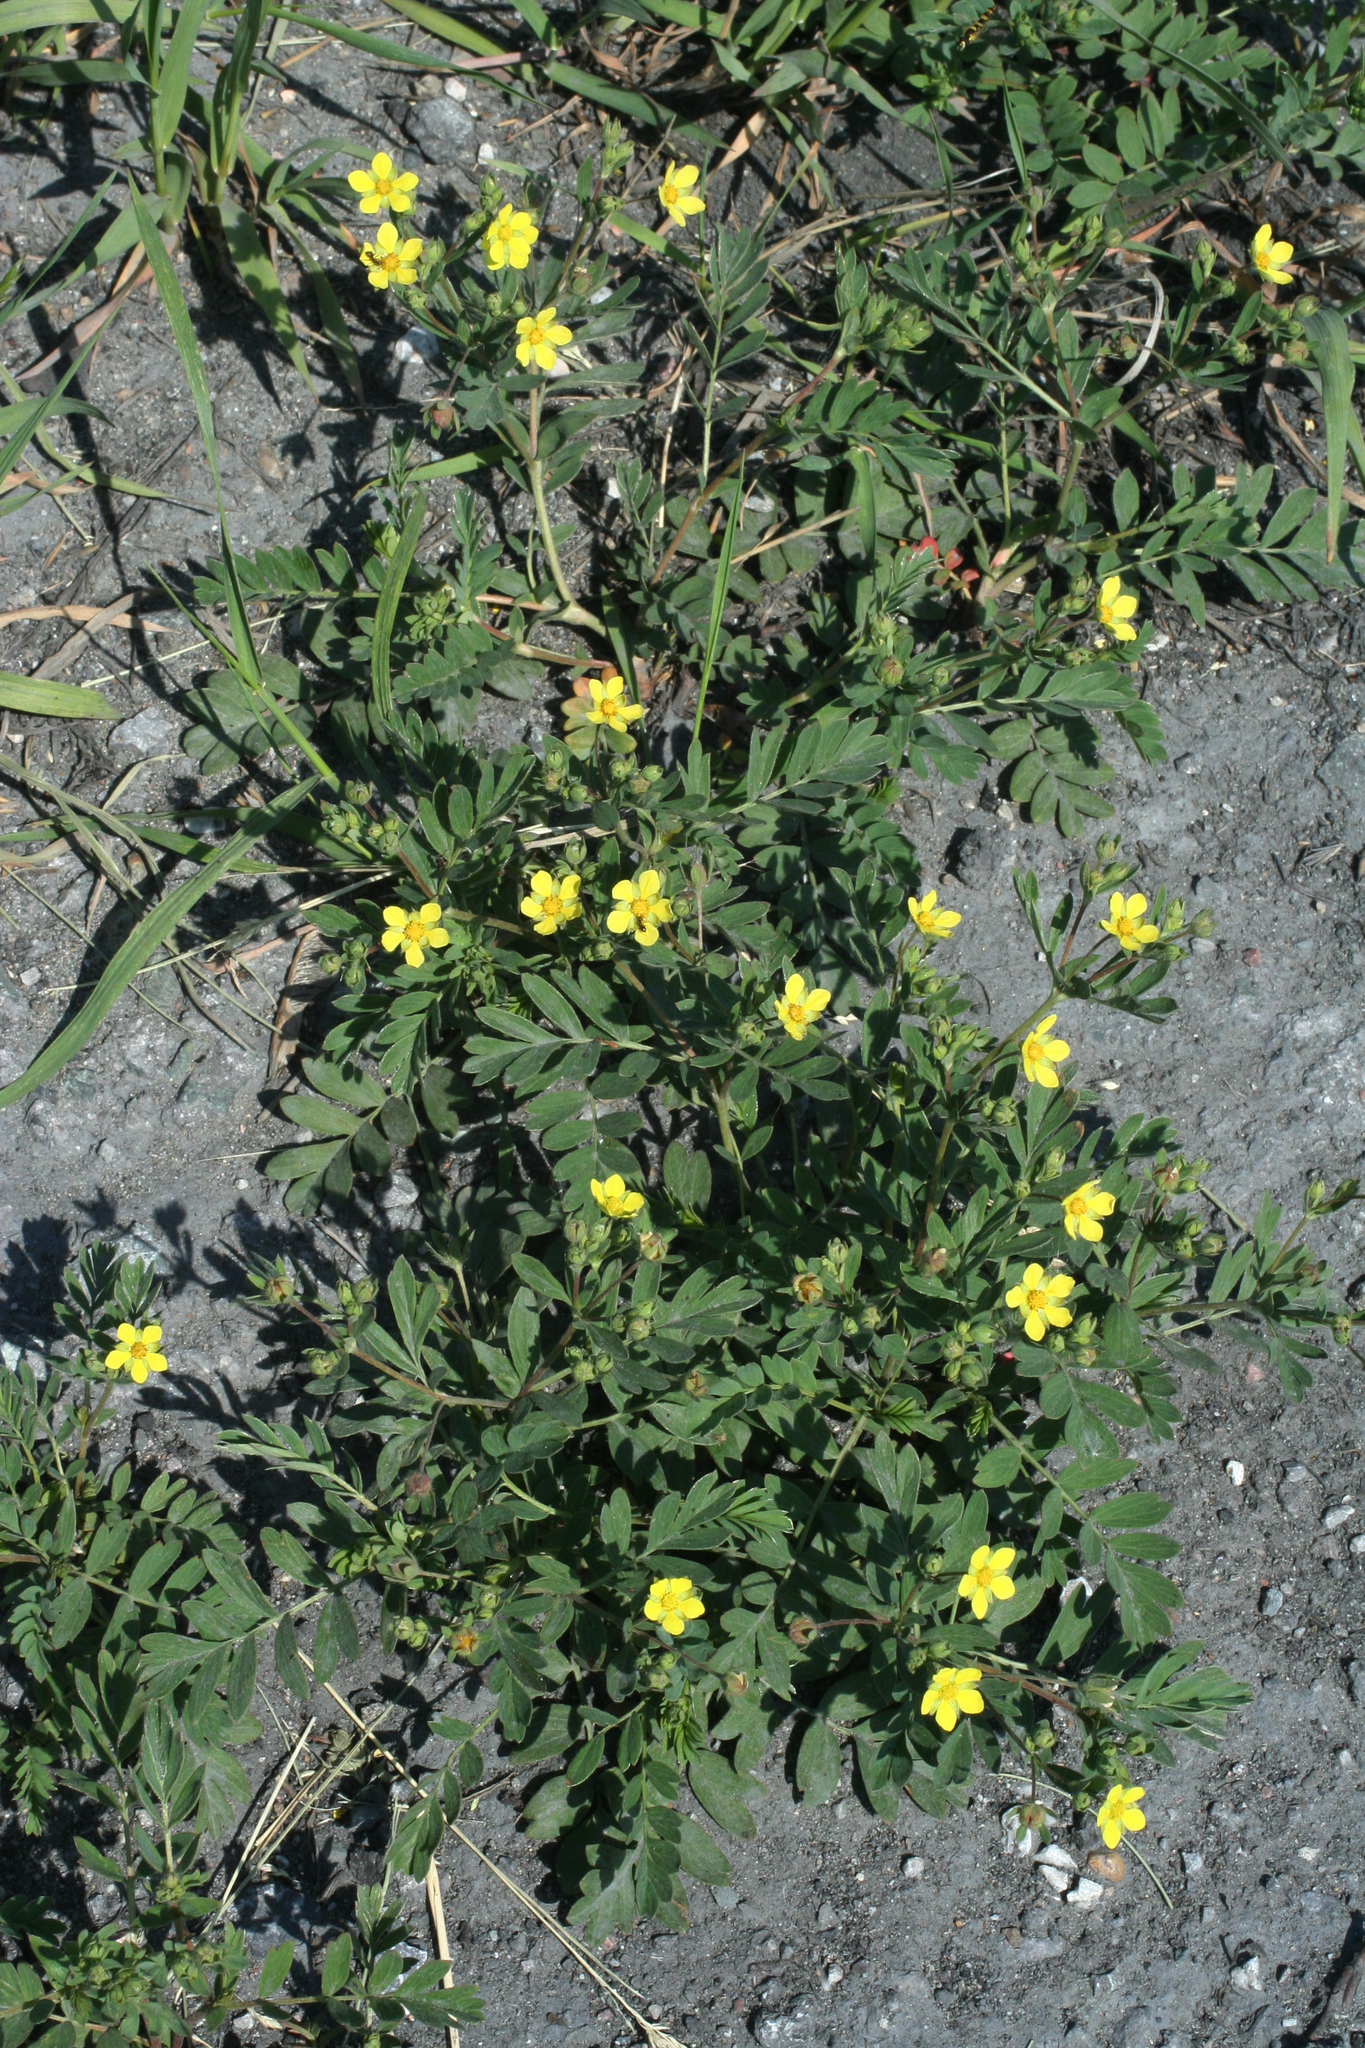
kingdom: Plantae
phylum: Tracheophyta
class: Magnoliopsida
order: Rosales
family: Rosaceae
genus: Sibbaldianthe
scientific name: Sibbaldianthe bifurca
